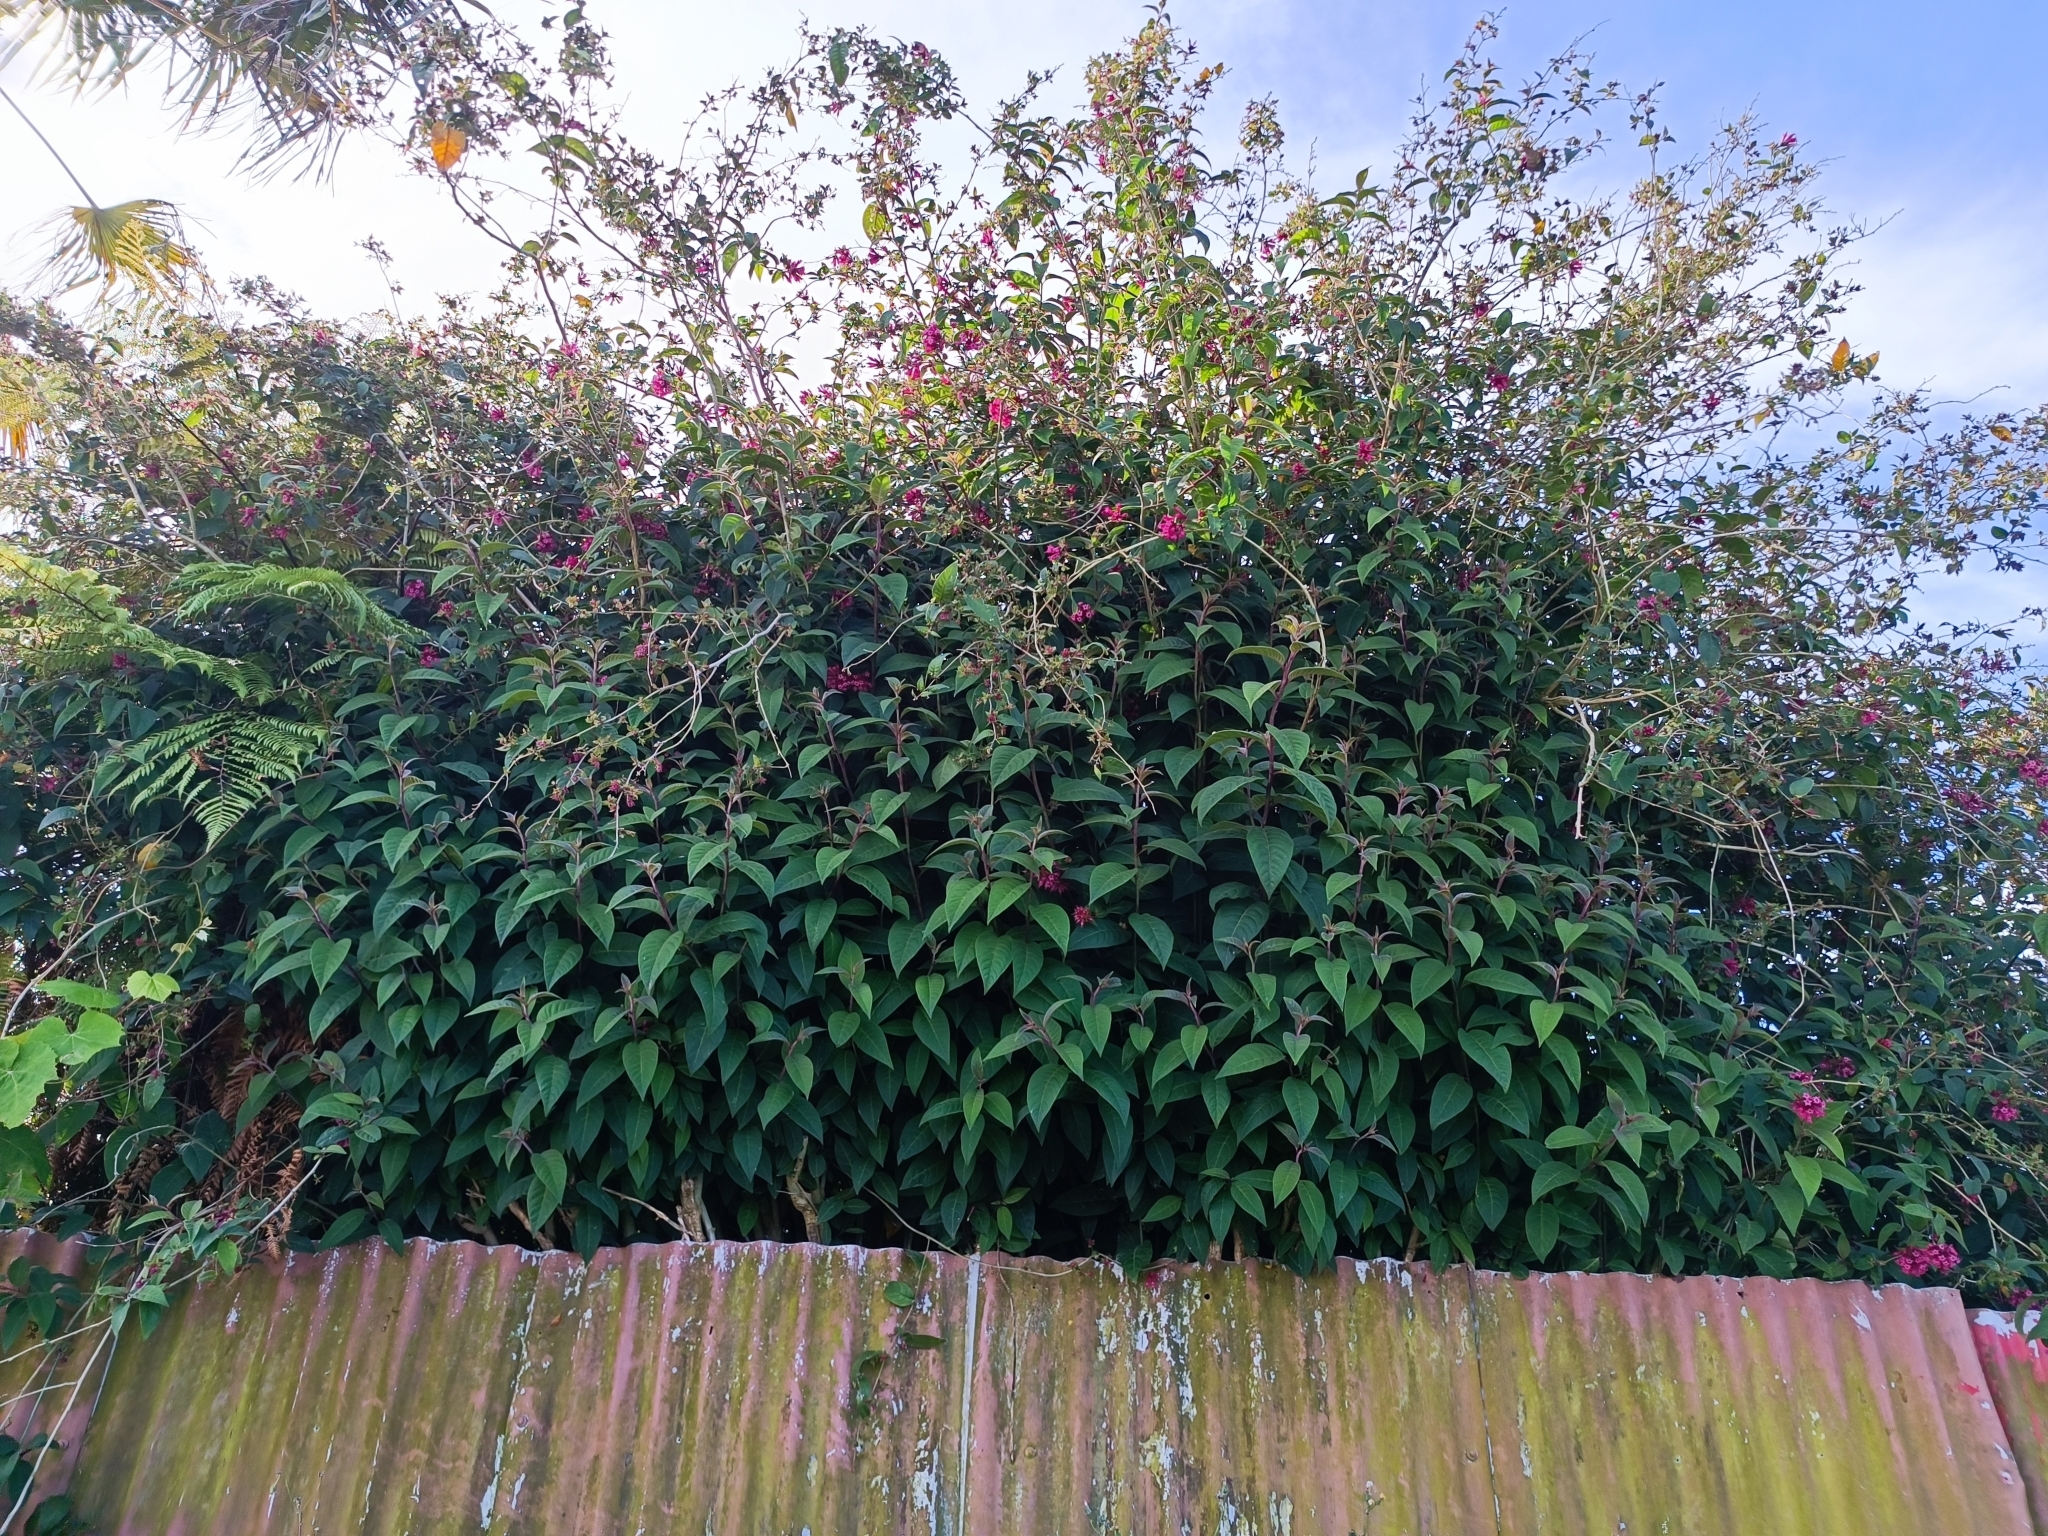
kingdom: Plantae
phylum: Tracheophyta
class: Magnoliopsida
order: Solanales
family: Solanaceae
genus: Cestrum
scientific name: Cestrum elegans
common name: Crimson cestrum
